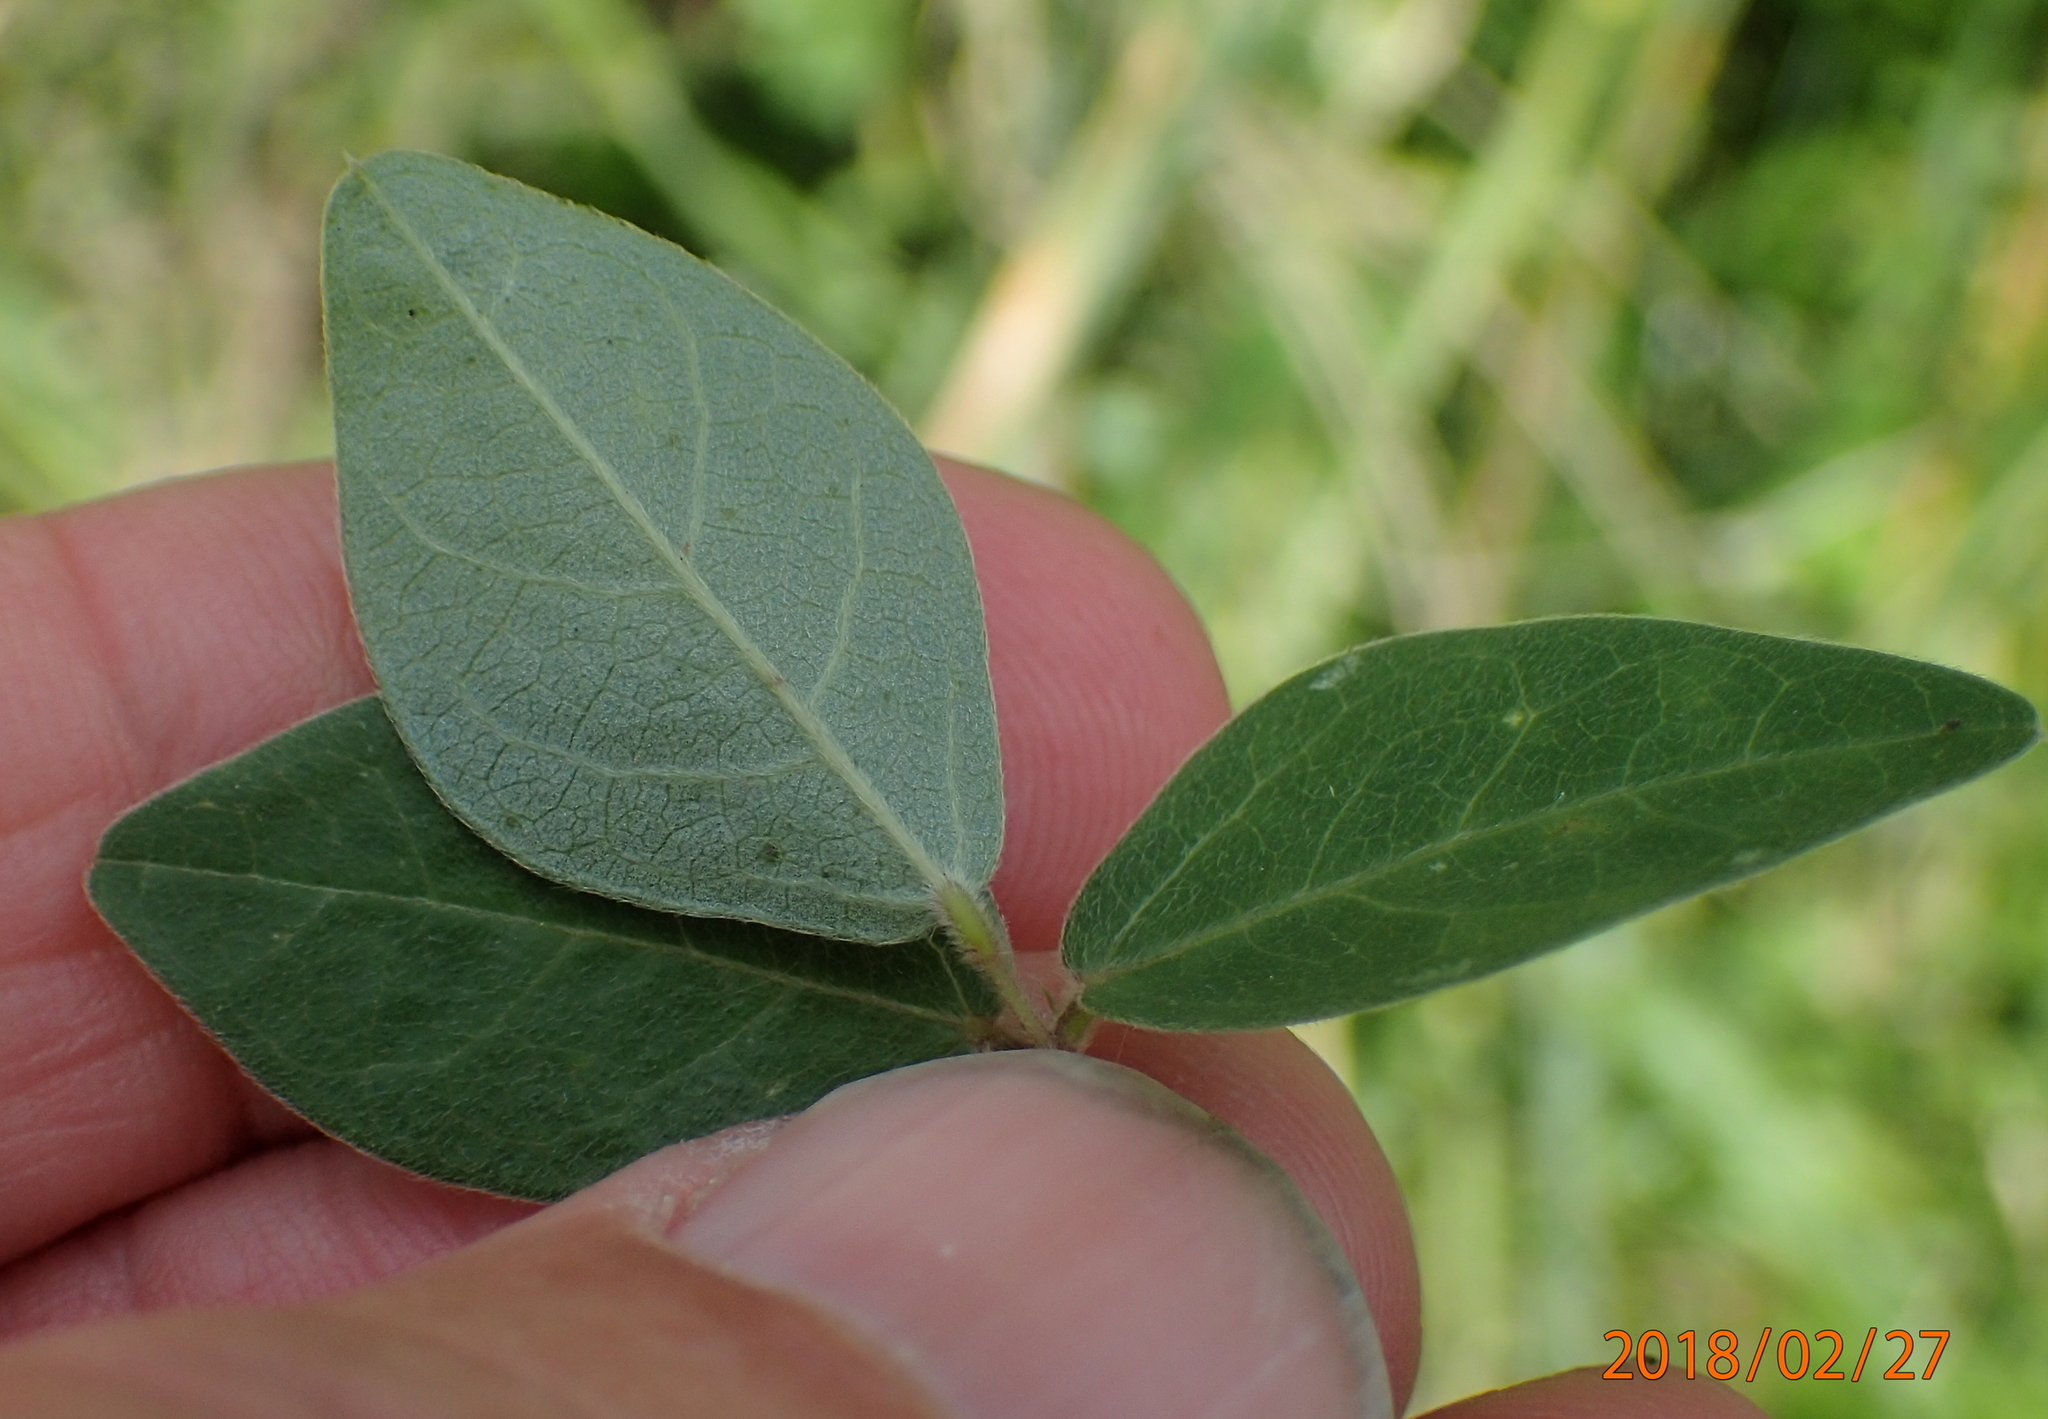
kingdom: Plantae
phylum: Tracheophyta
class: Magnoliopsida
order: Fabales
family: Fabaceae
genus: Macrotyloma
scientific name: Macrotyloma axillare
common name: Perennial horsegram
